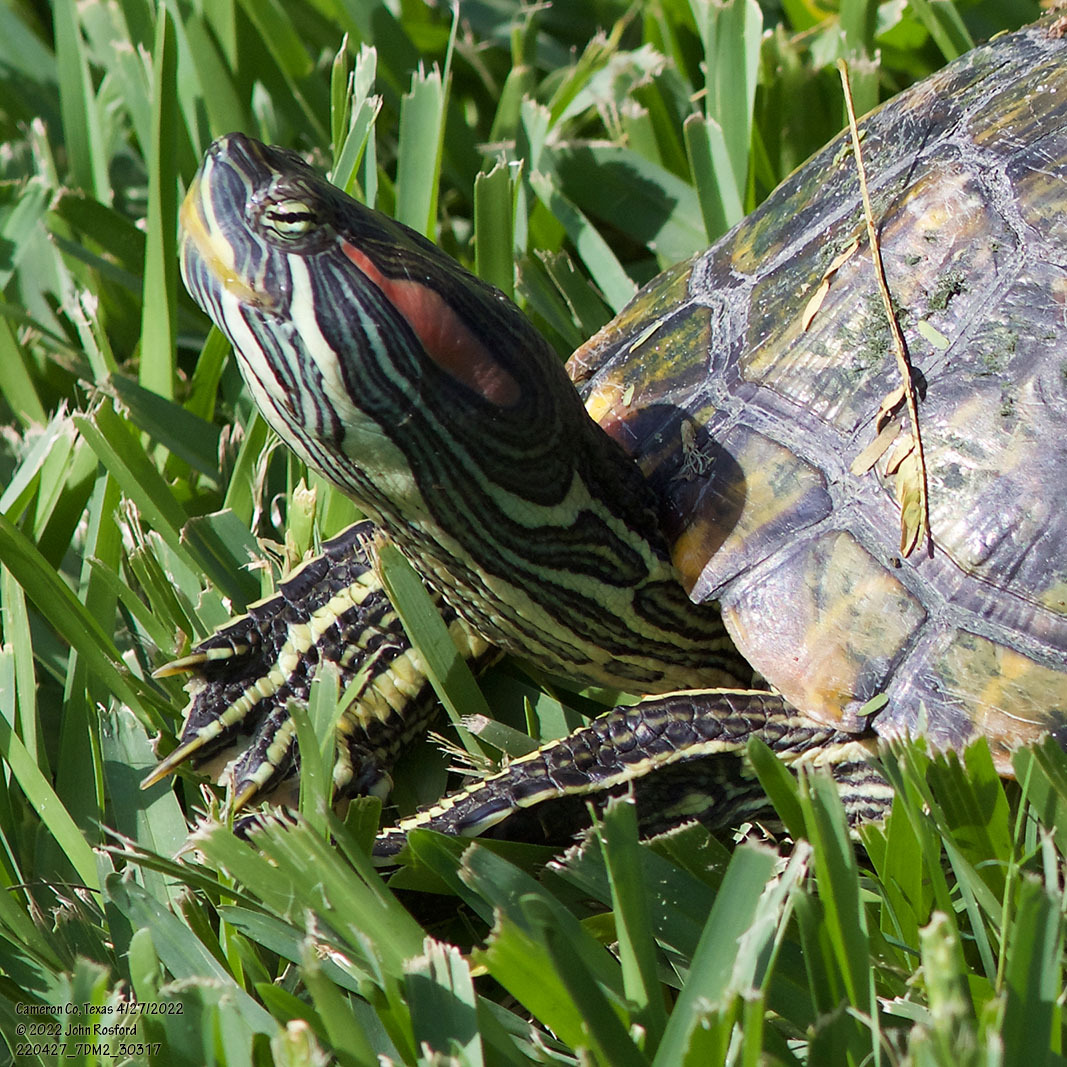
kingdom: Animalia
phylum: Chordata
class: Testudines
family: Emydidae
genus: Trachemys
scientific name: Trachemys scripta
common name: Slider
